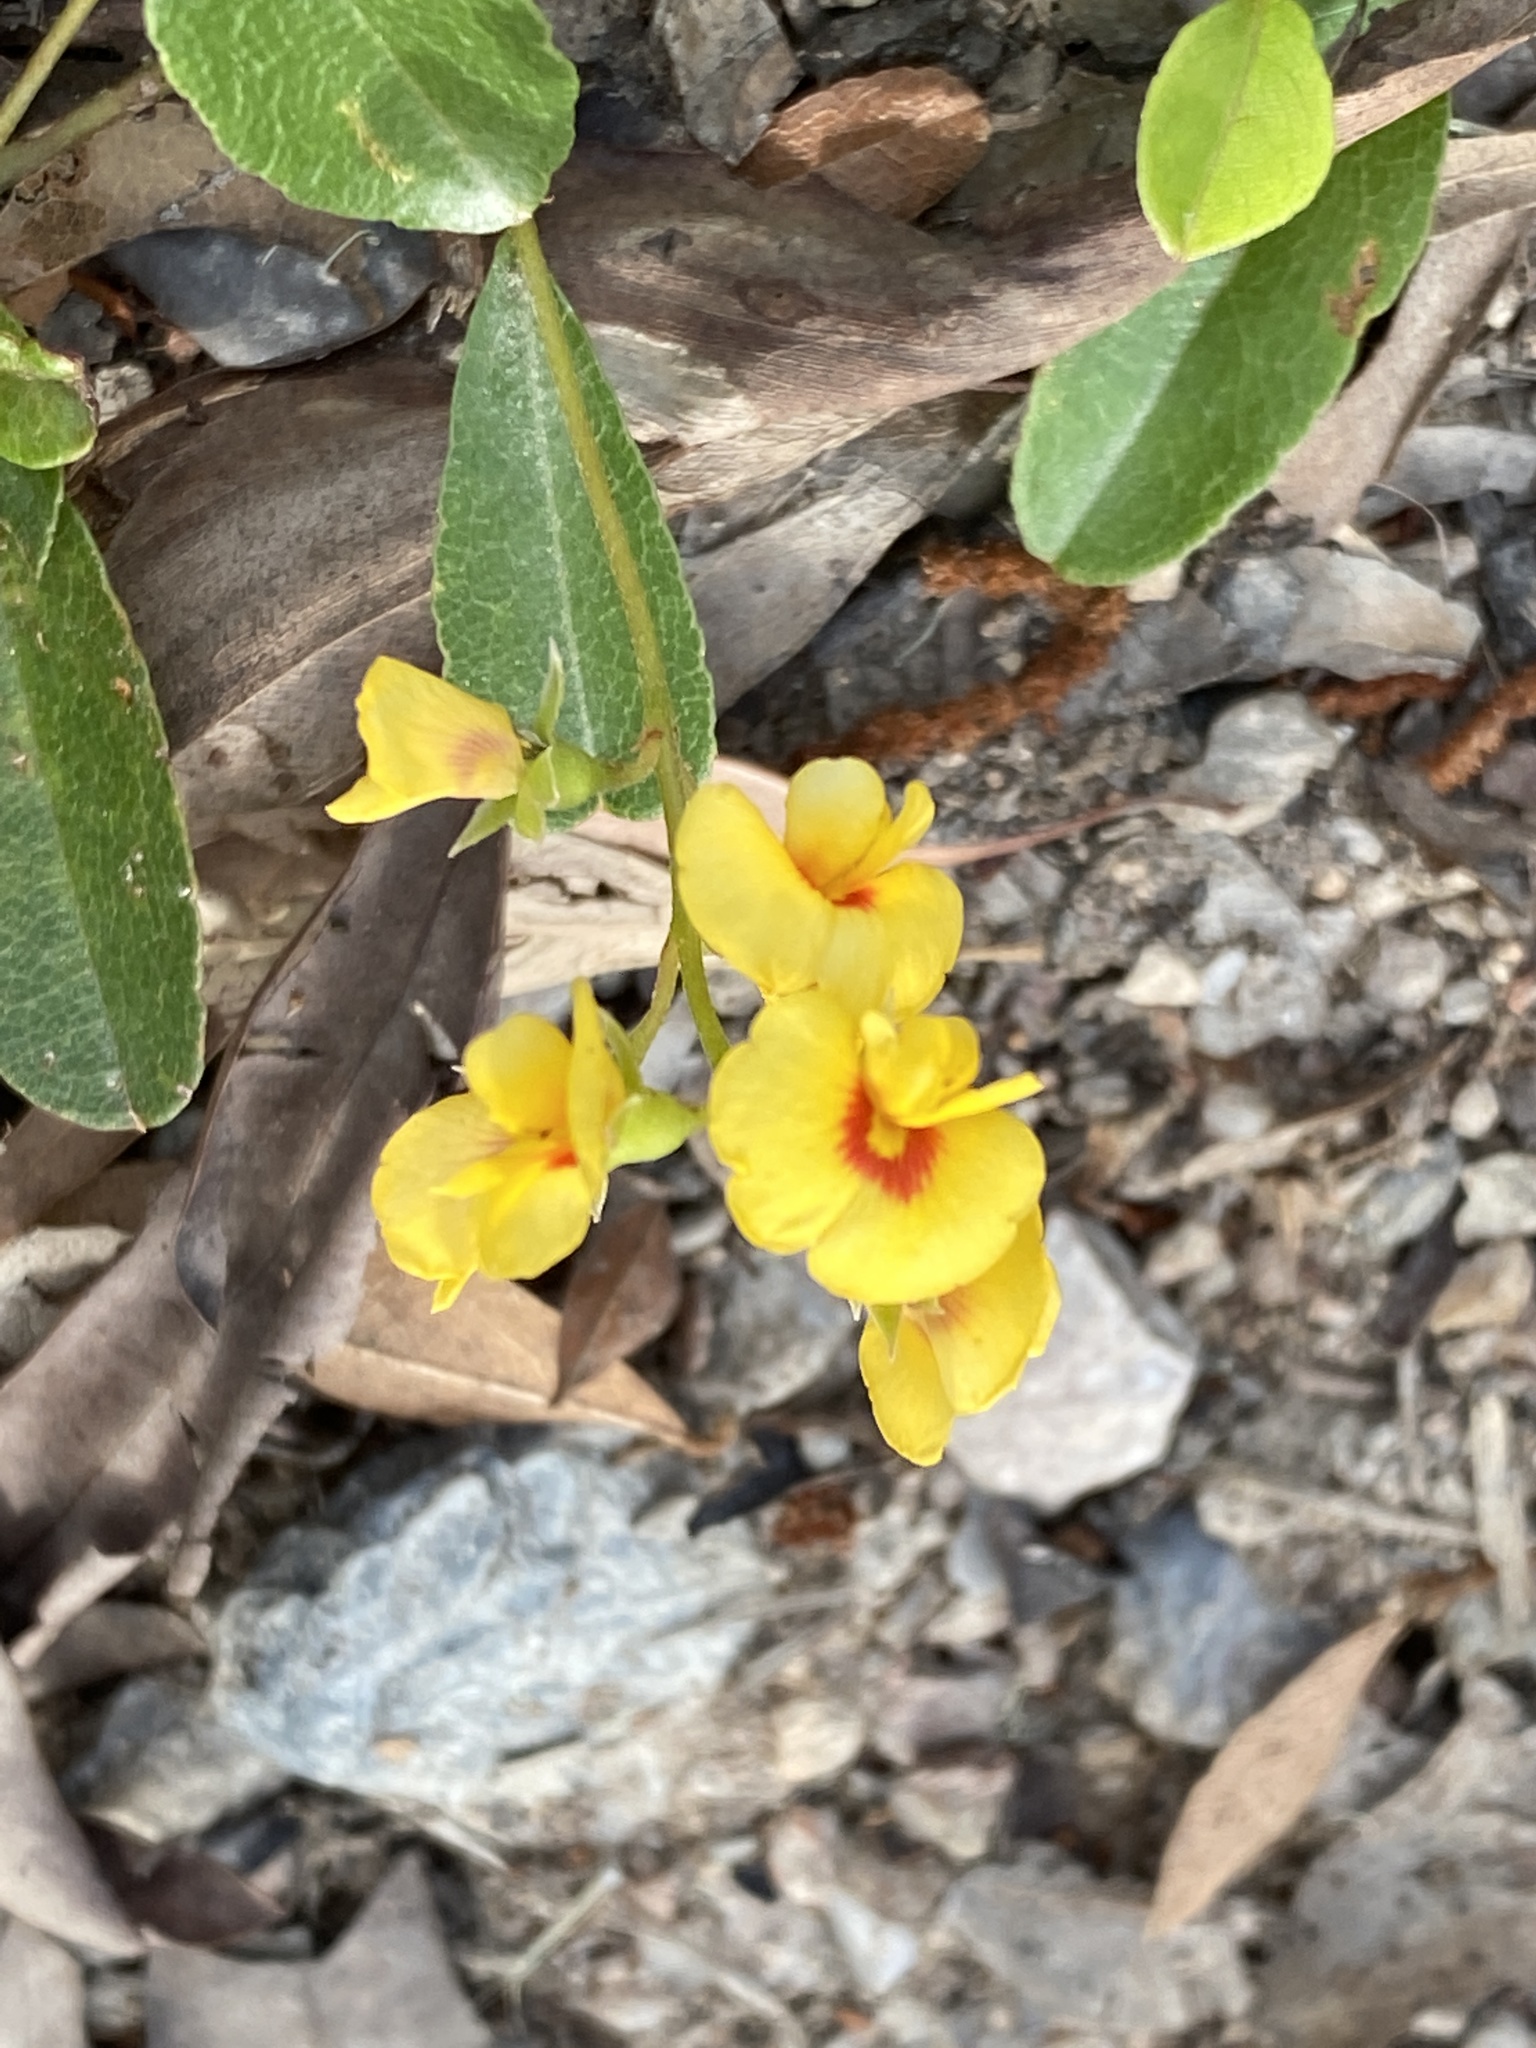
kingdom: Plantae
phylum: Tracheophyta
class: Magnoliopsida
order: Fabales
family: Fabaceae
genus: Podolobium
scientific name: Podolobium scandens
